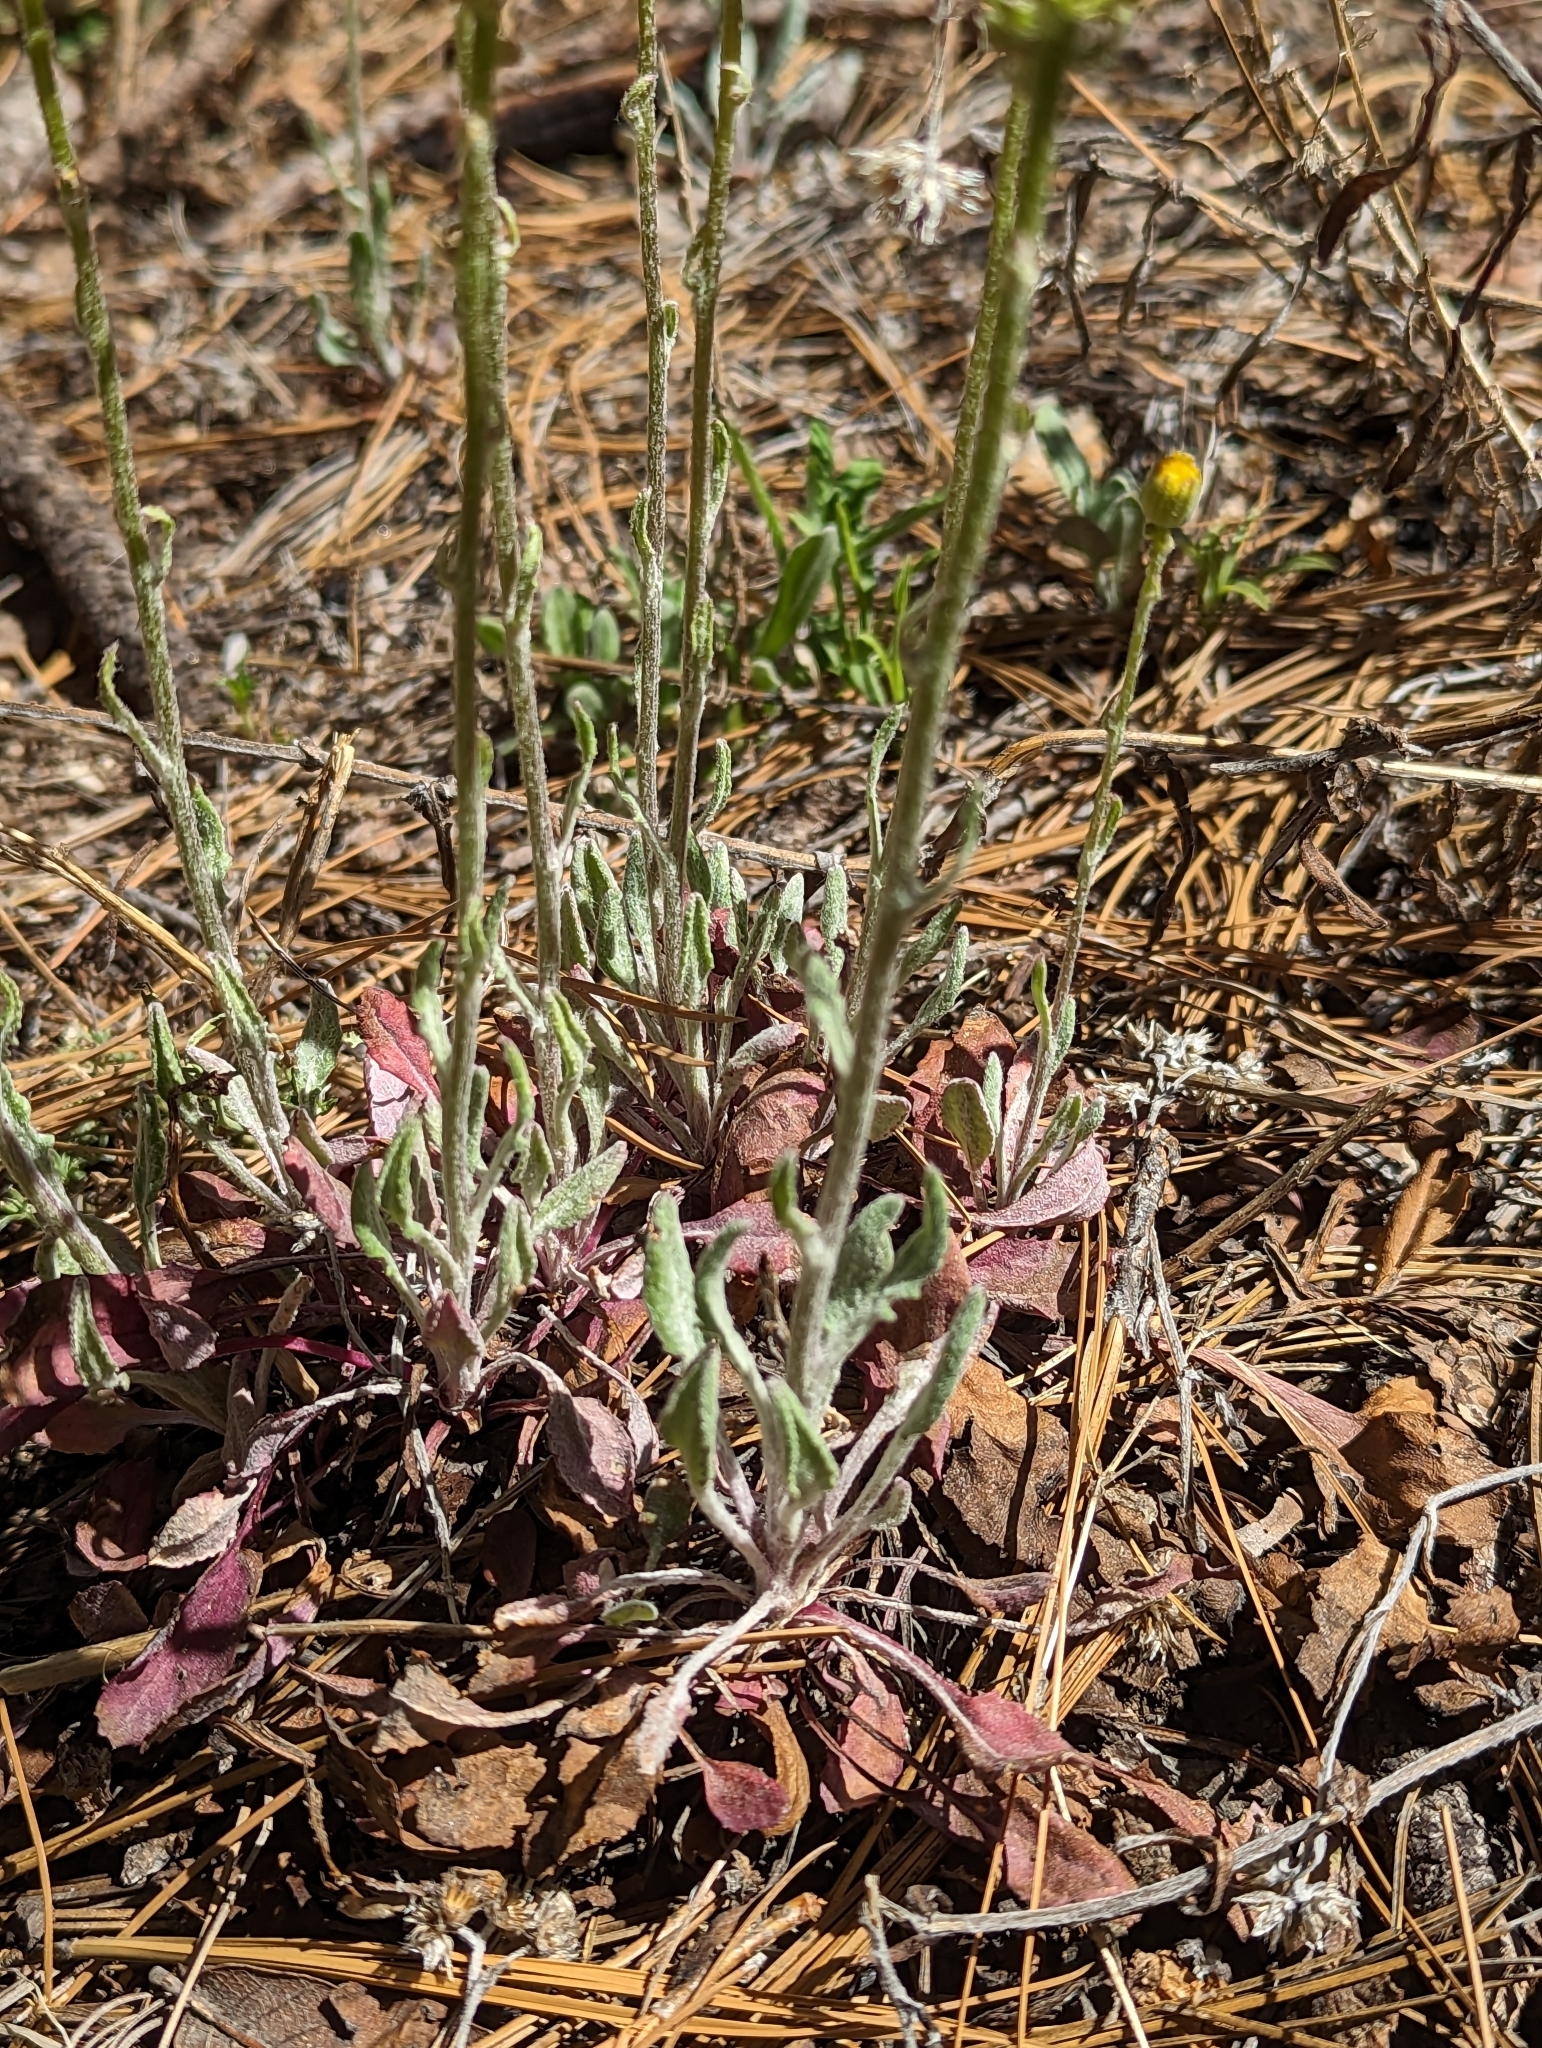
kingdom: Plantae
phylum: Tracheophyta
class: Magnoliopsida
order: Asterales
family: Asteraceae
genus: Packera
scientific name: Packera neomexicana
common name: New mexico butterweed
